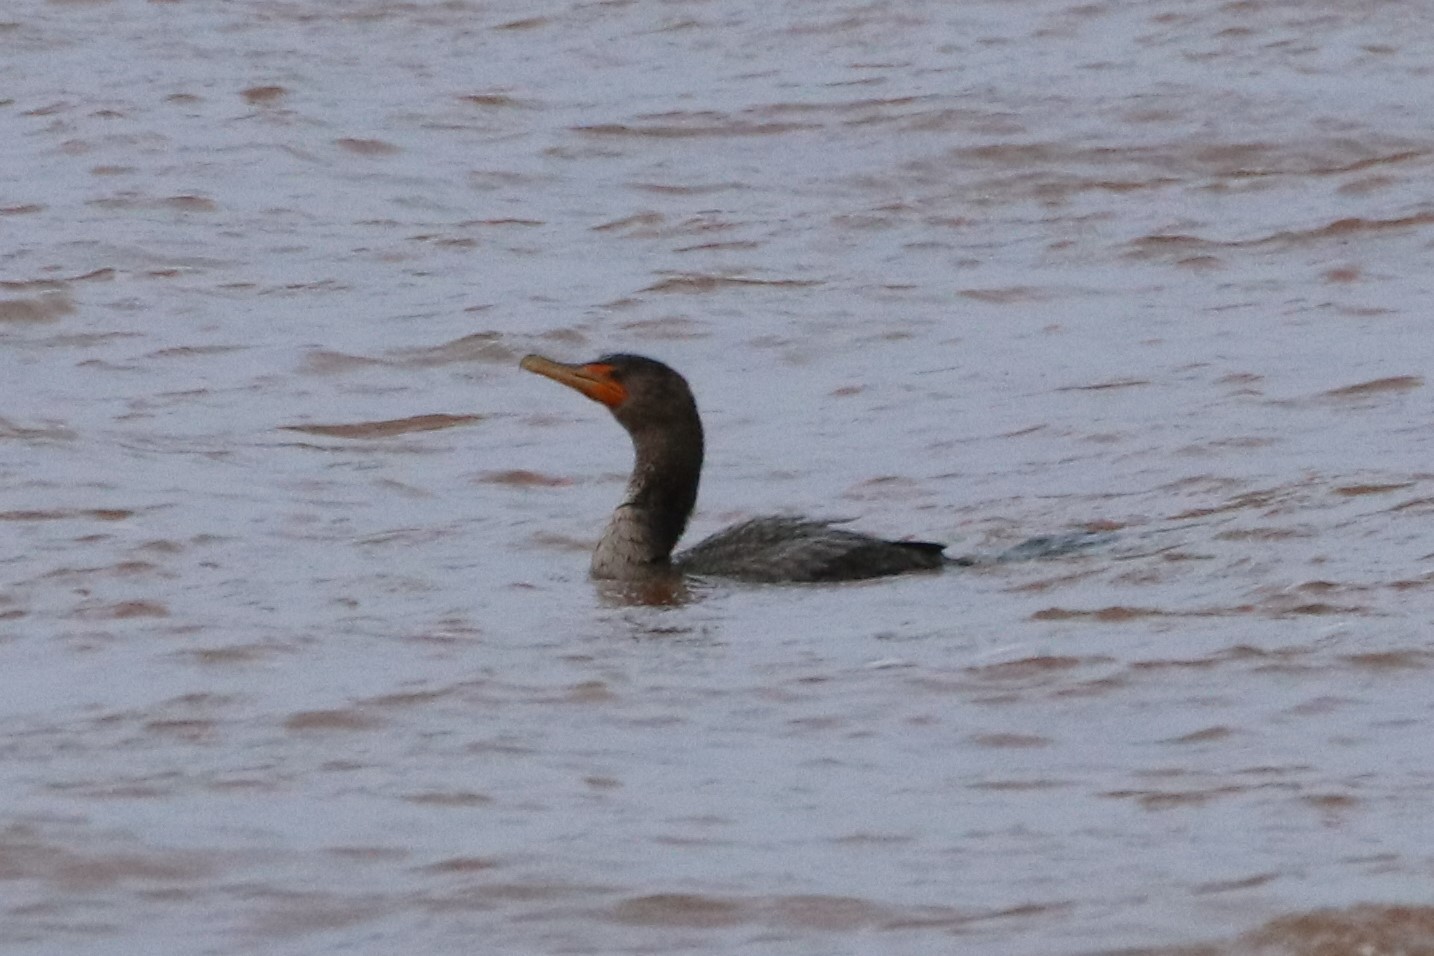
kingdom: Animalia
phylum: Chordata
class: Aves
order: Suliformes
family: Phalacrocoracidae
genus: Phalacrocorax
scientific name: Phalacrocorax auritus
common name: Double-crested cormorant
